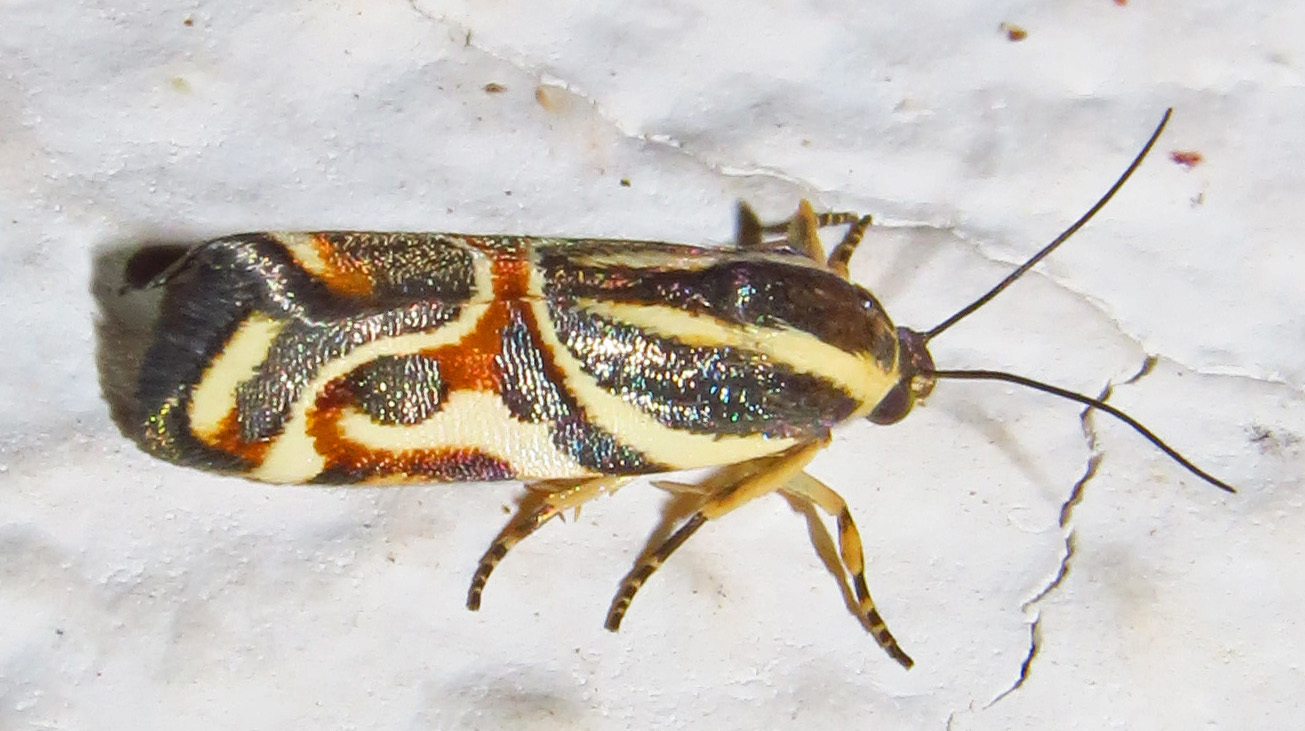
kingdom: Animalia
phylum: Arthropoda
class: Insecta
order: Lepidoptera
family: Noctuidae
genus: Spragueia
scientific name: Spragueia magnifica
